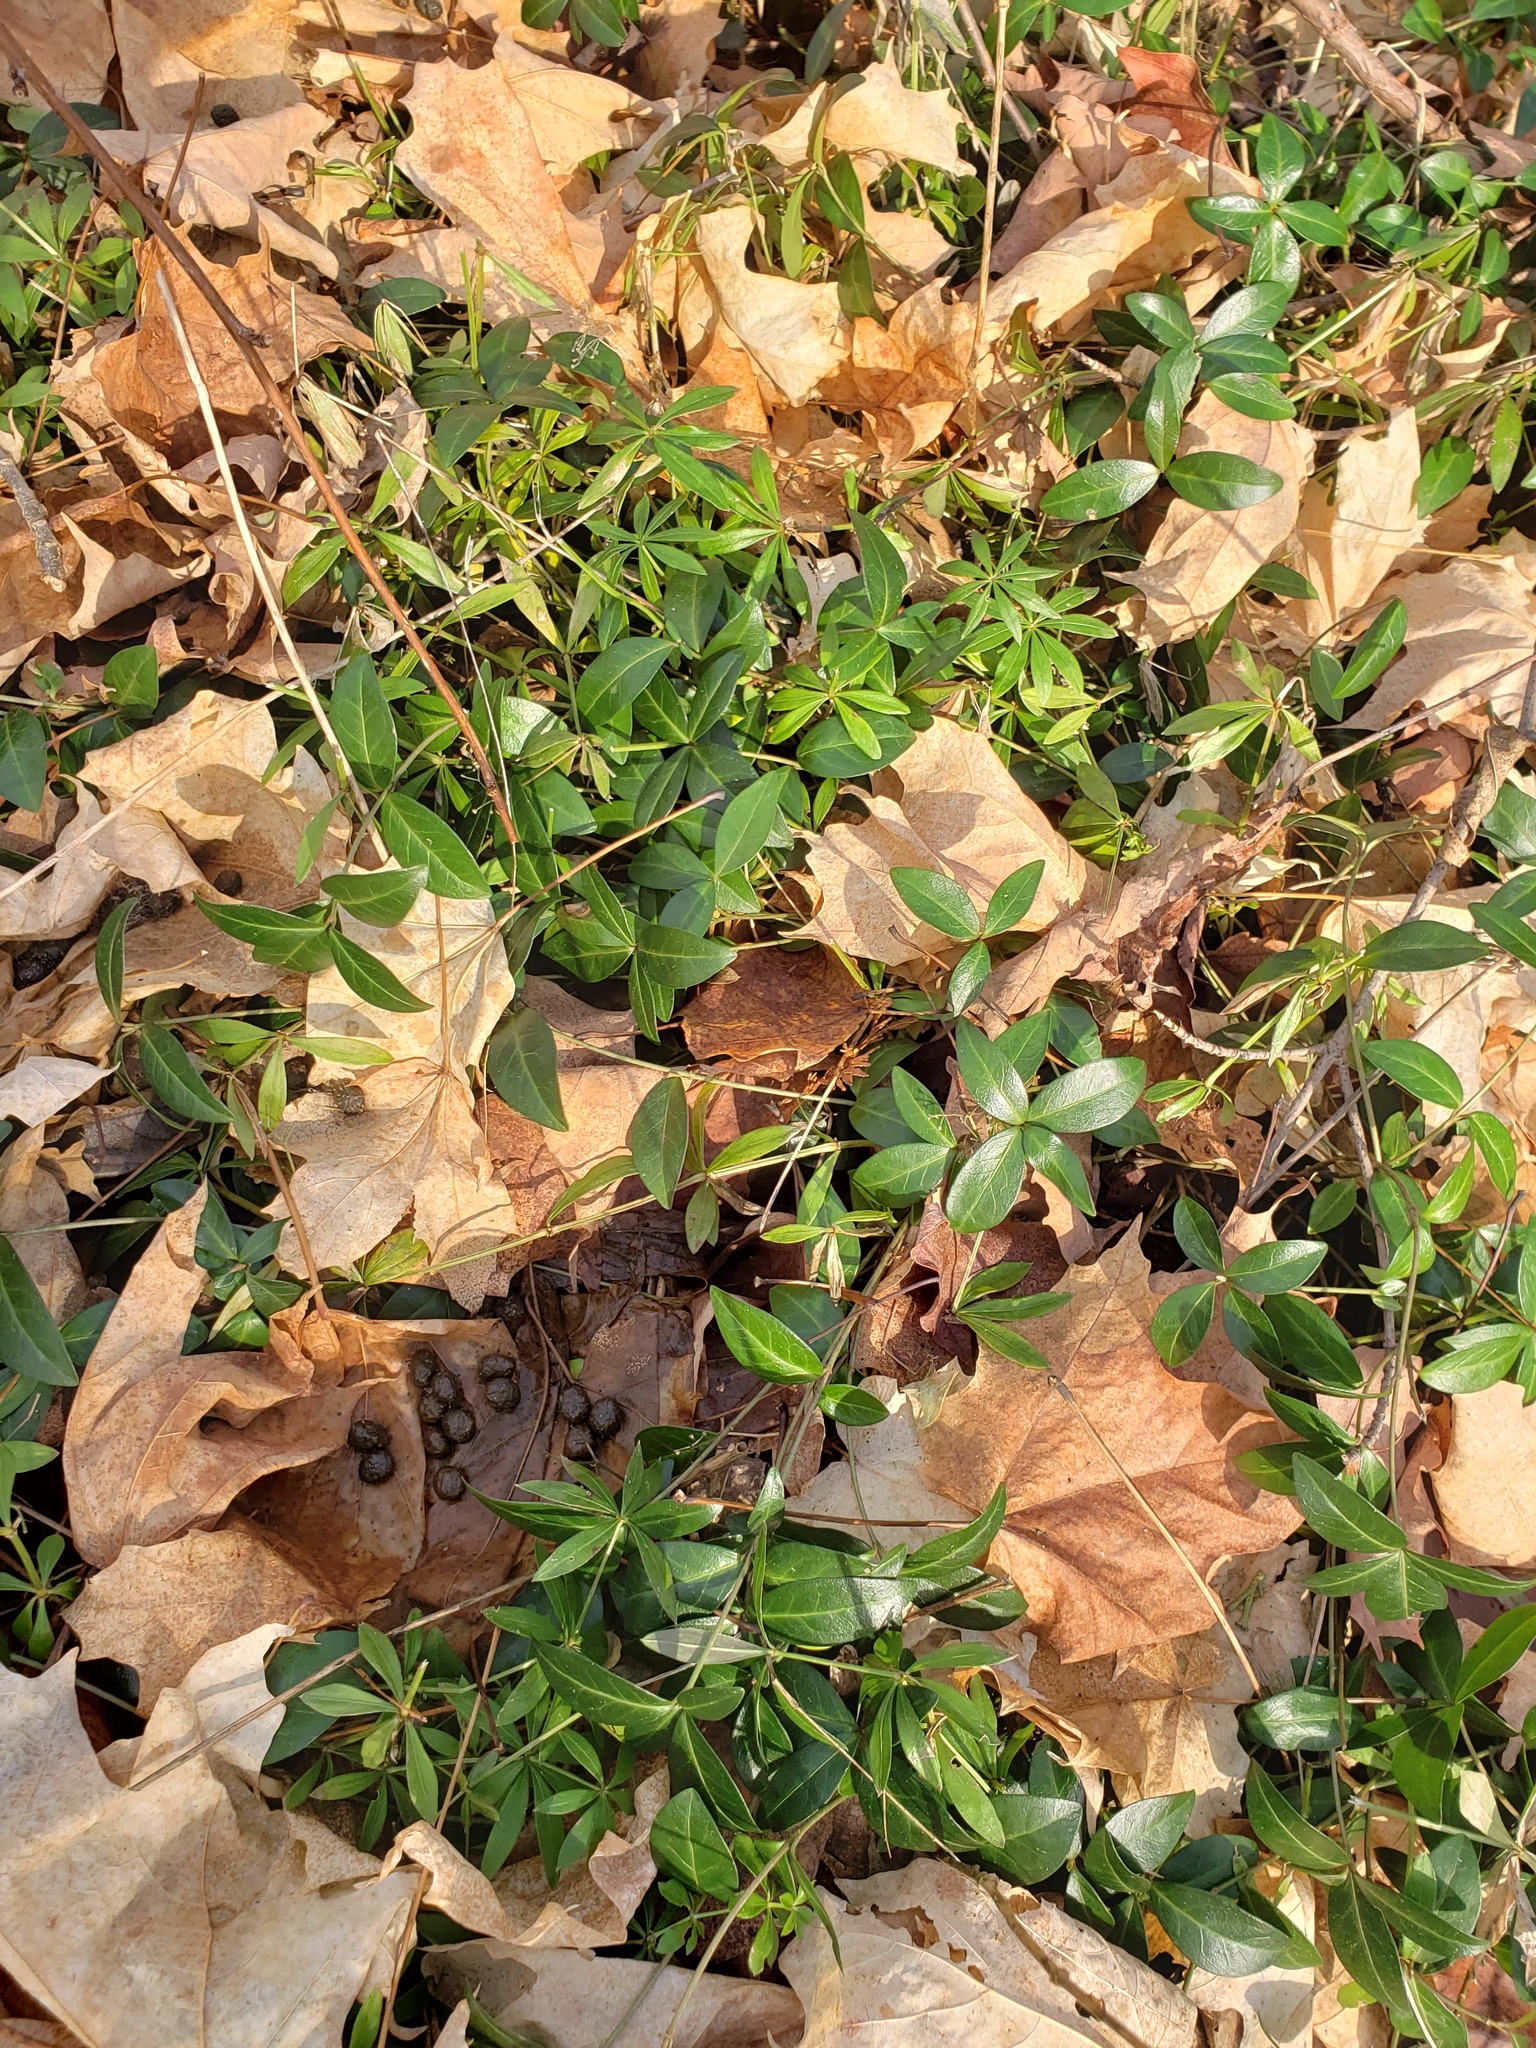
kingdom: Plantae
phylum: Tracheophyta
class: Magnoliopsida
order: Gentianales
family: Apocynaceae
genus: Vinca
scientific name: Vinca minor
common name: Lesser periwinkle
